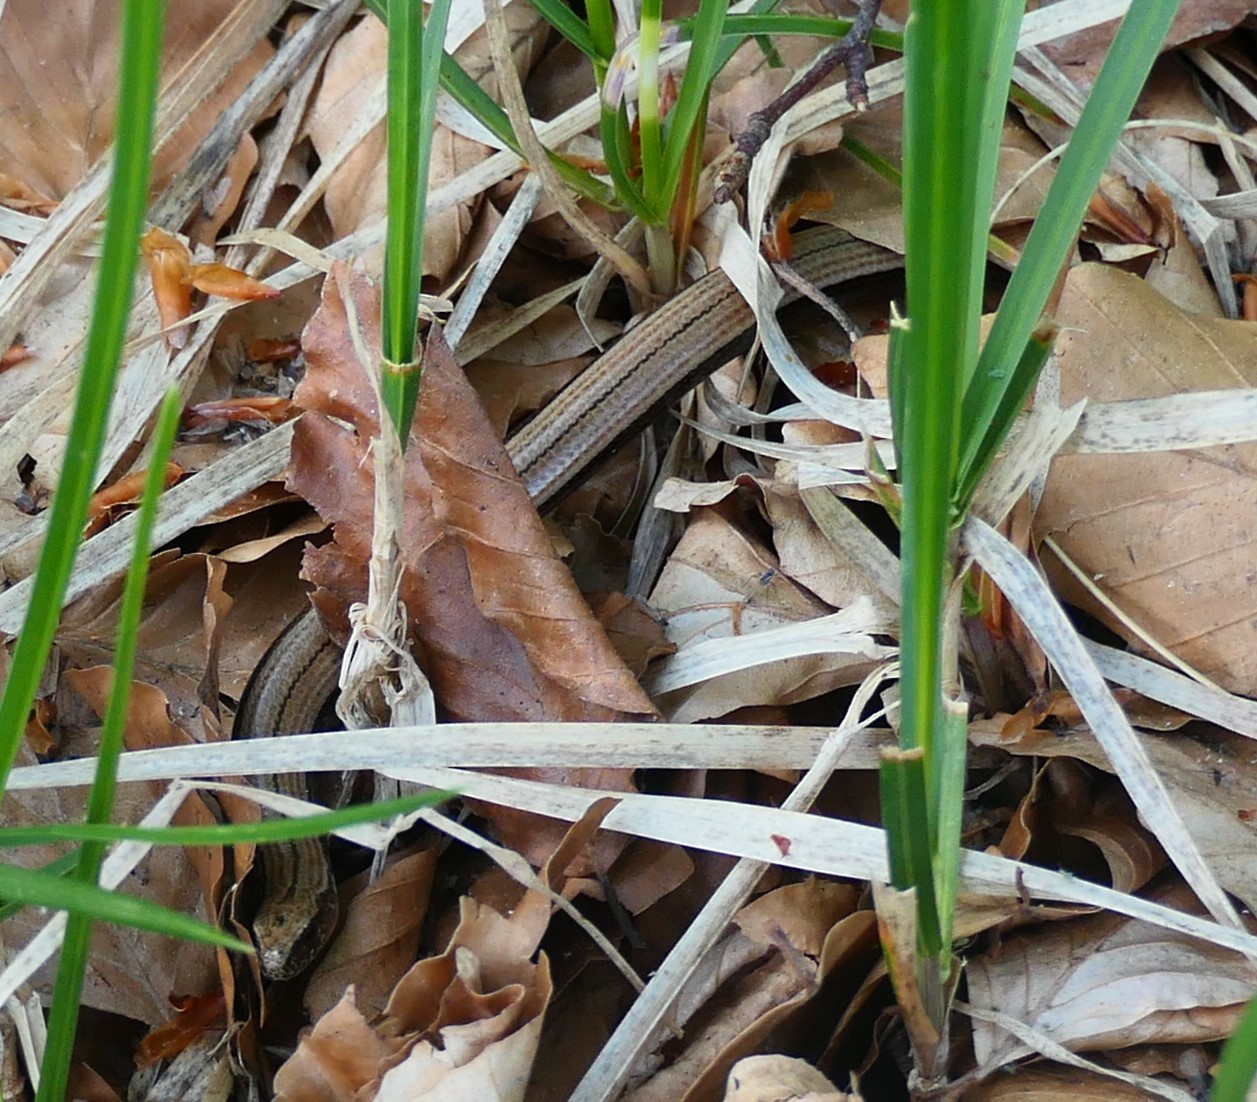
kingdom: Animalia
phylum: Chordata
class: Squamata
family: Anguidae
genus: Anguis
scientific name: Anguis fragilis
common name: Slow worm
